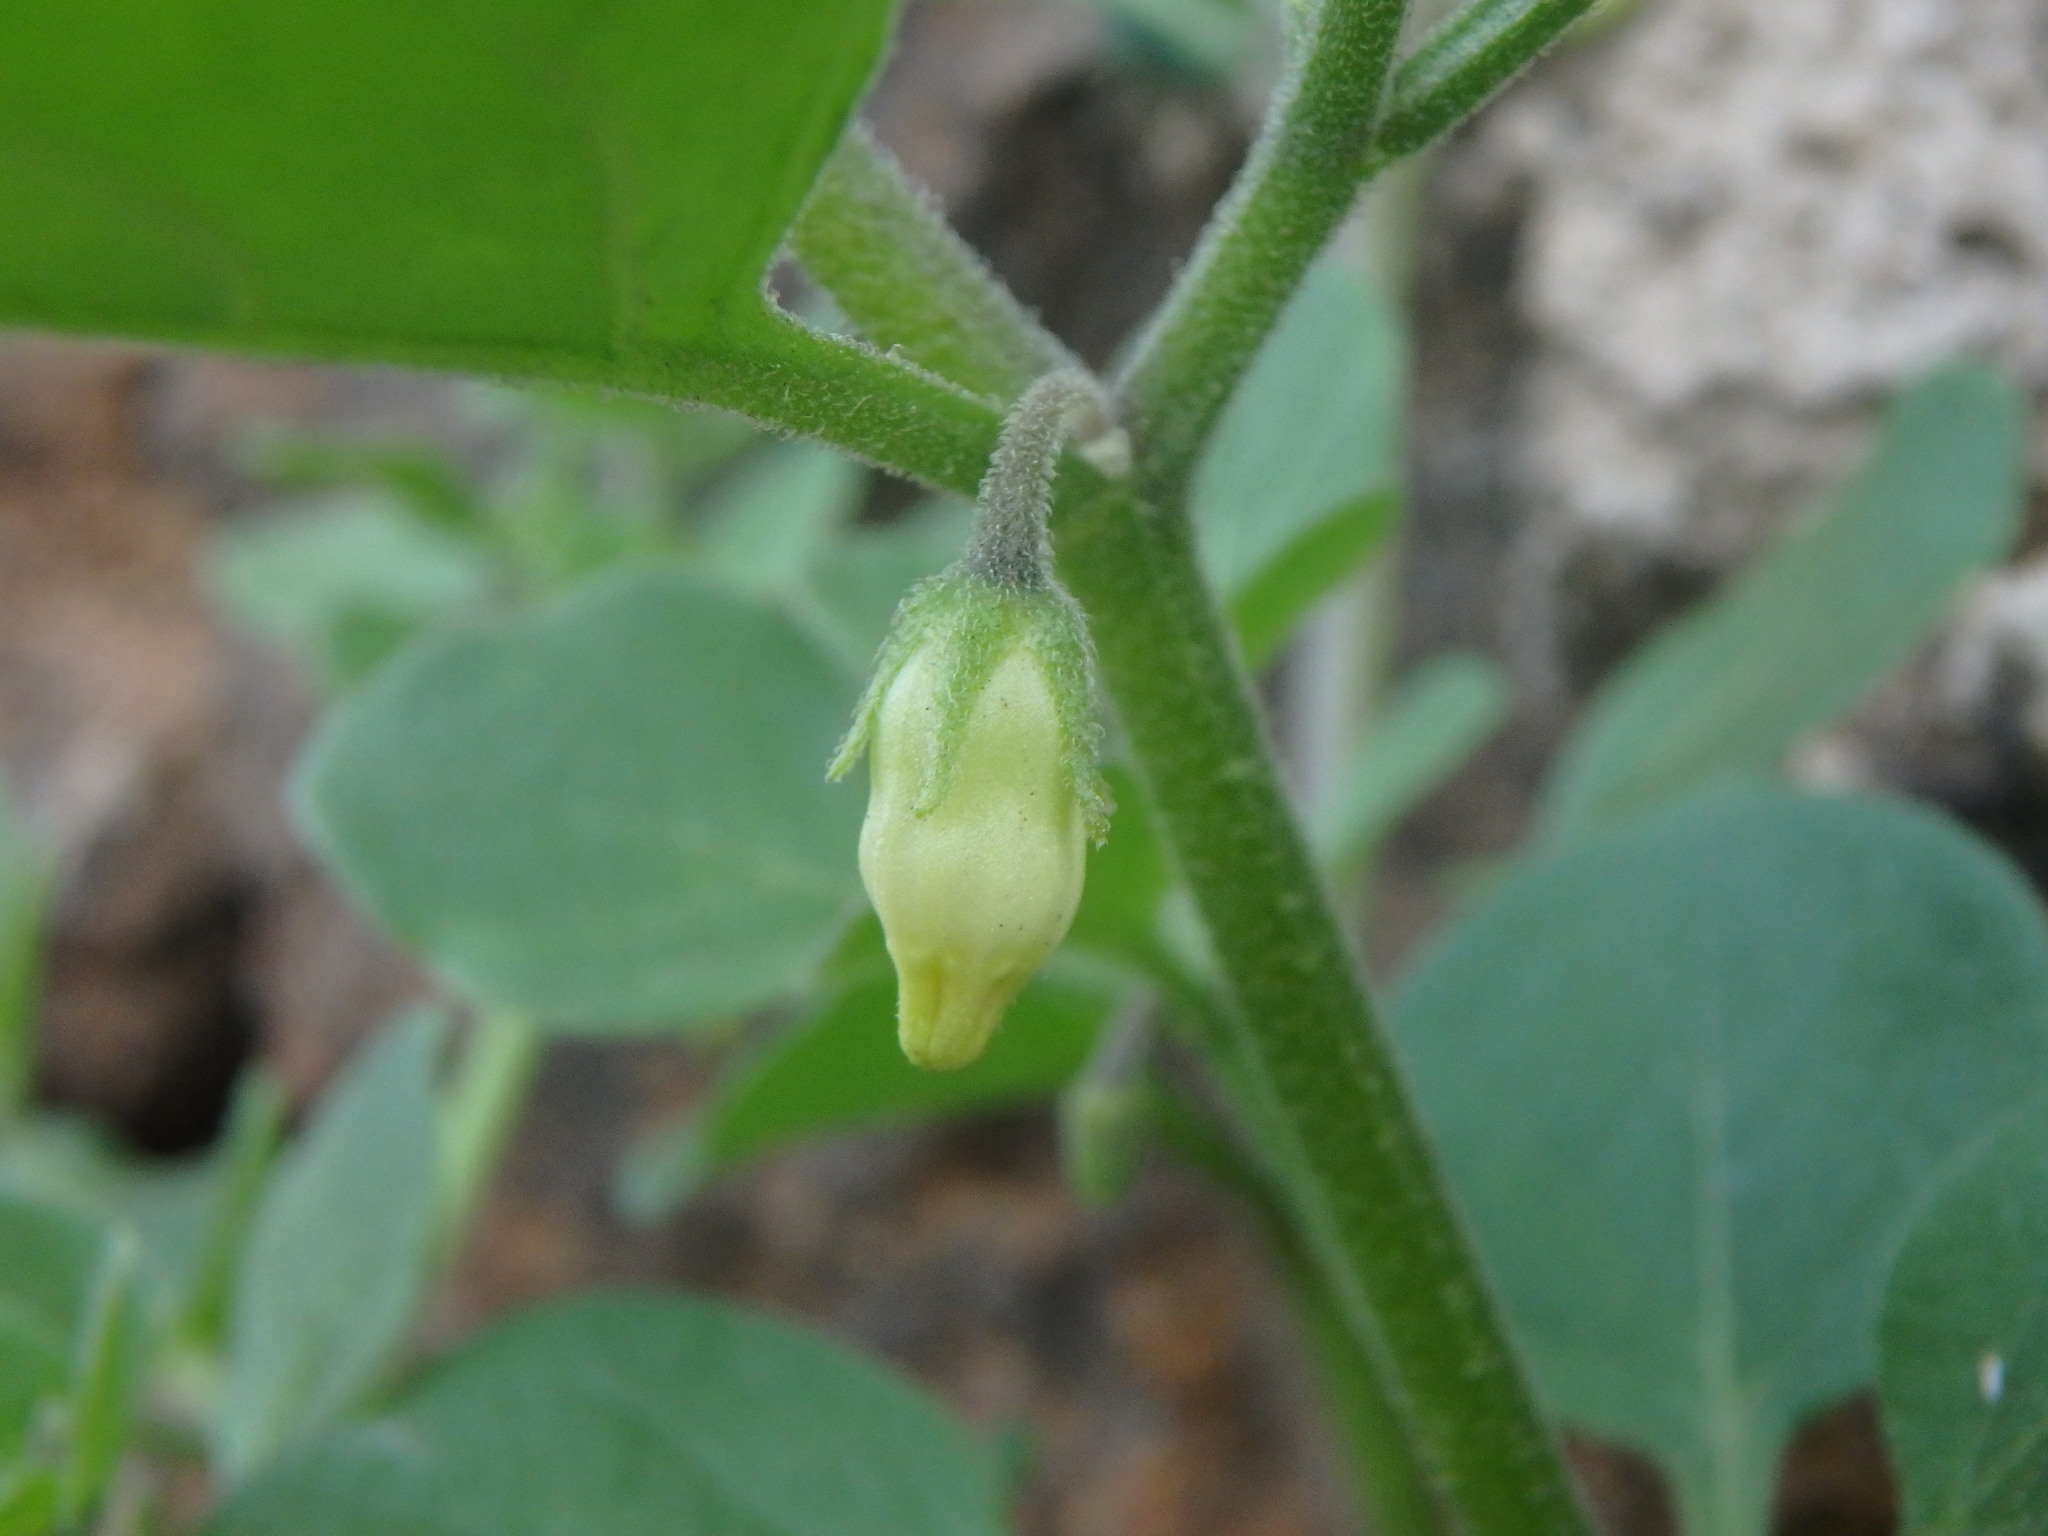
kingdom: Plantae
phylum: Tracheophyta
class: Magnoliopsida
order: Solanales
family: Solanaceae
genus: Salpichroa
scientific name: Salpichroa origanifolia
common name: Lily-of-the-valley-vine
